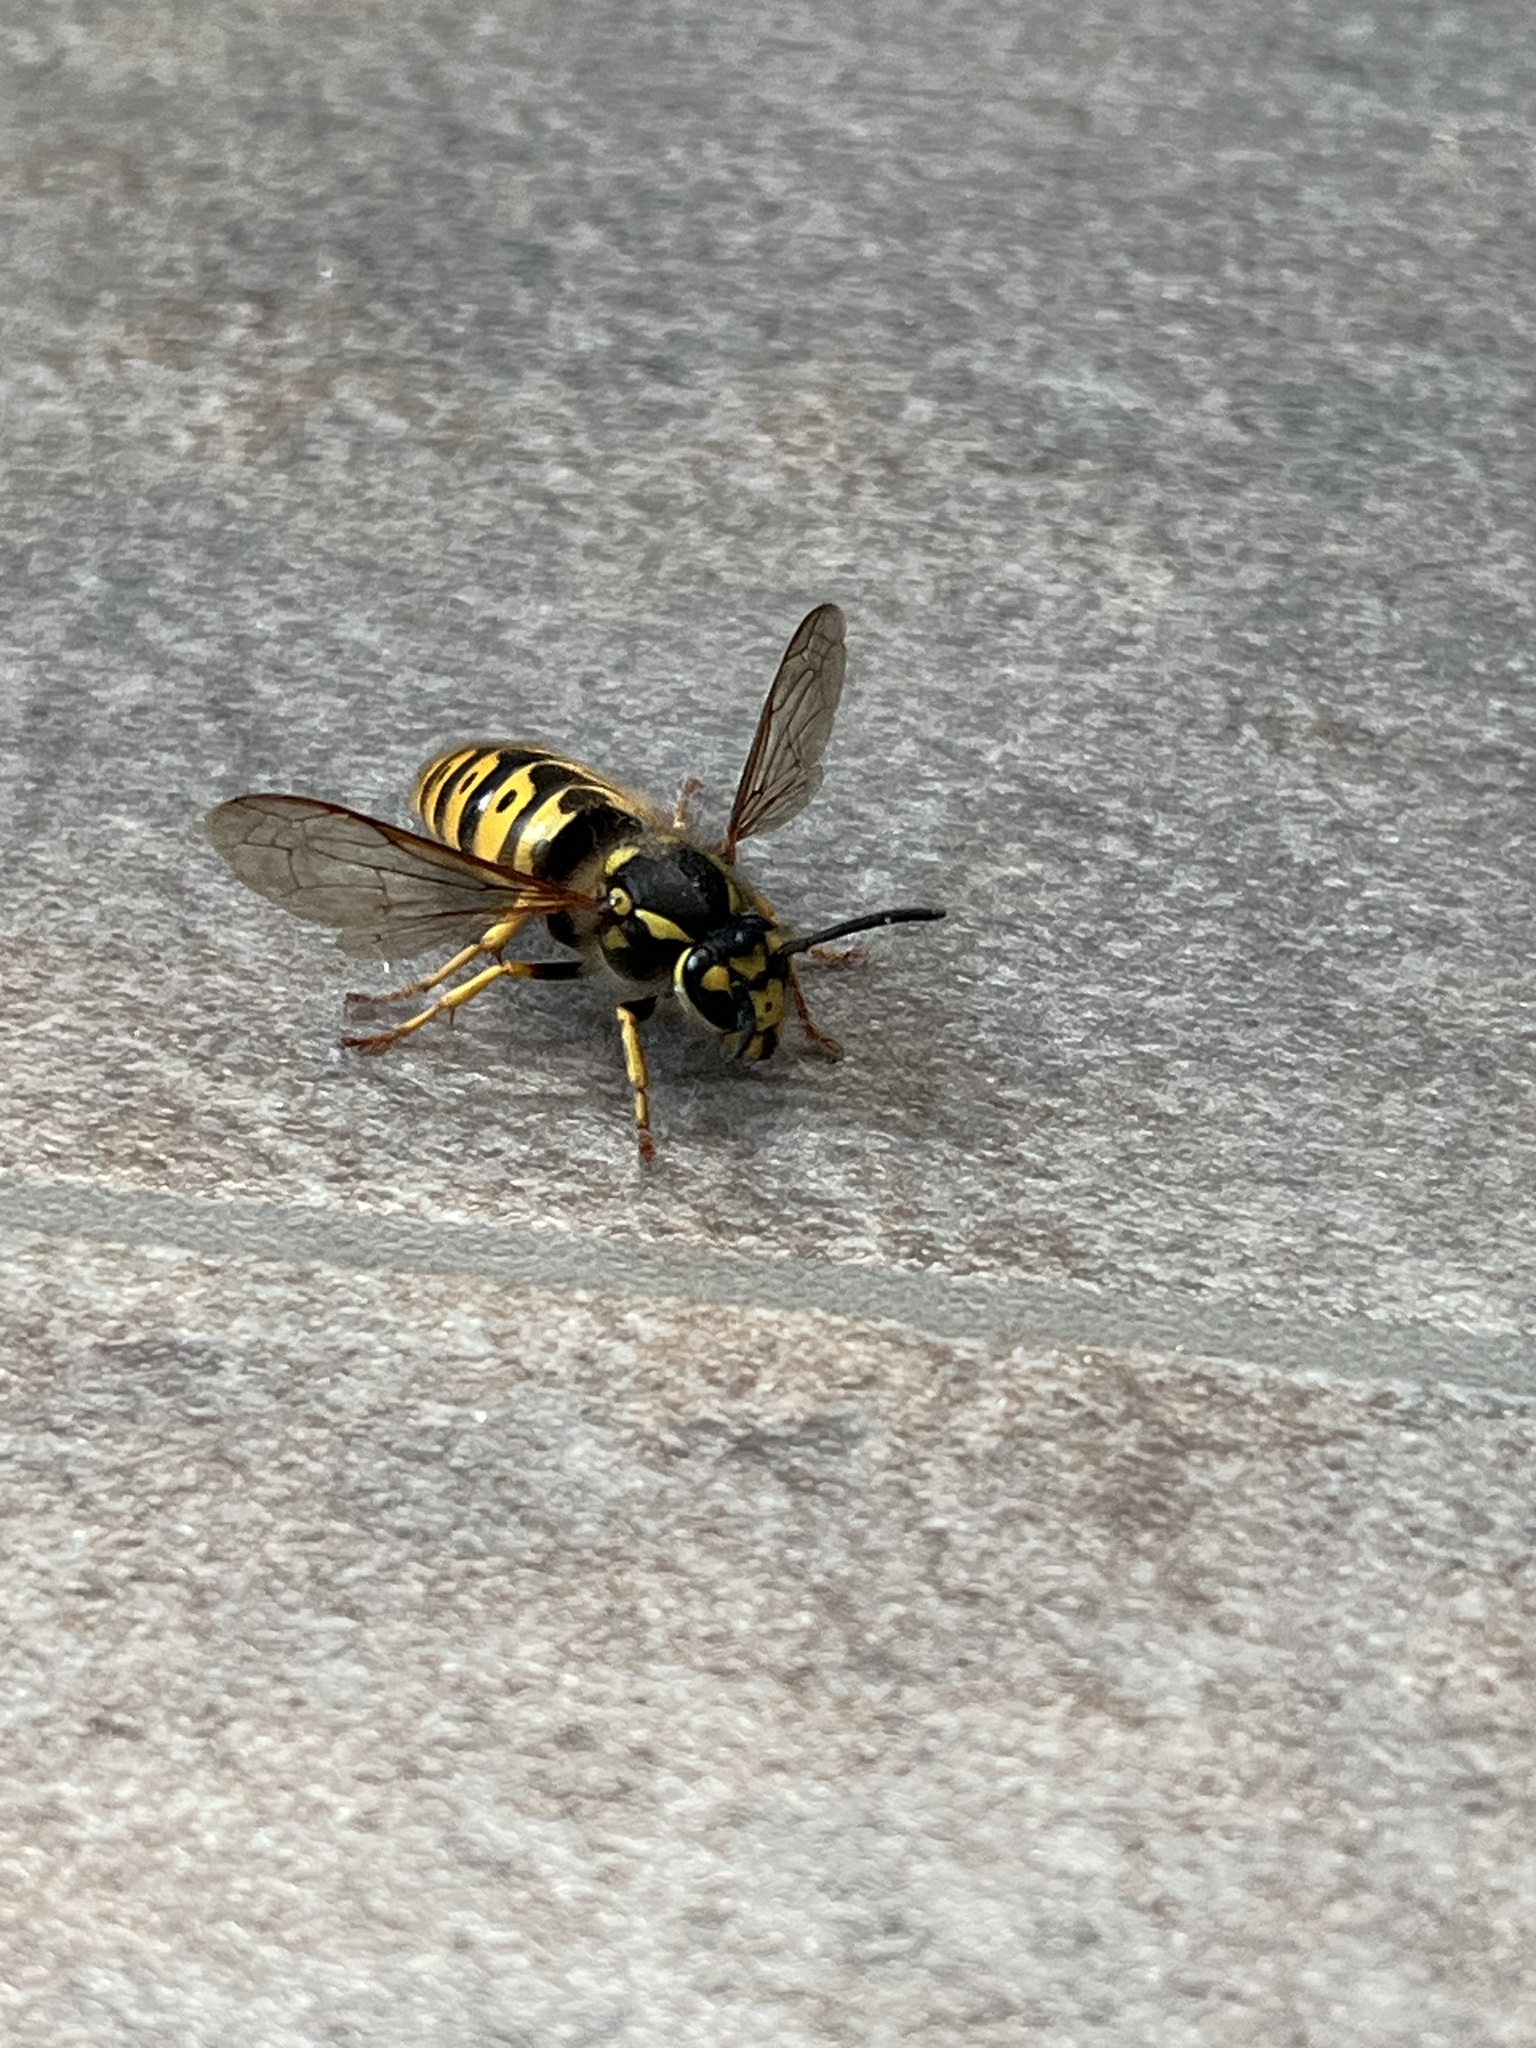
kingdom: Animalia
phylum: Arthropoda
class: Insecta
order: Hymenoptera
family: Vespidae
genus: Vespula
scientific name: Vespula germanica
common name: German wasp
